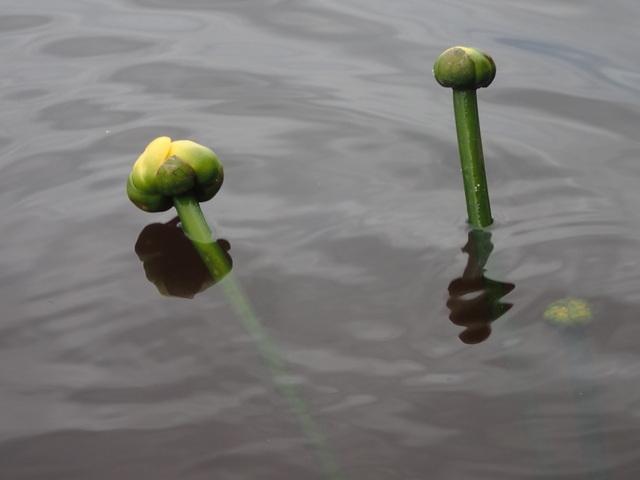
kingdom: Plantae
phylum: Tracheophyta
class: Magnoliopsida
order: Nymphaeales
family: Nymphaeaceae
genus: Nuphar
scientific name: Nuphar advena
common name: Spatter-dock
